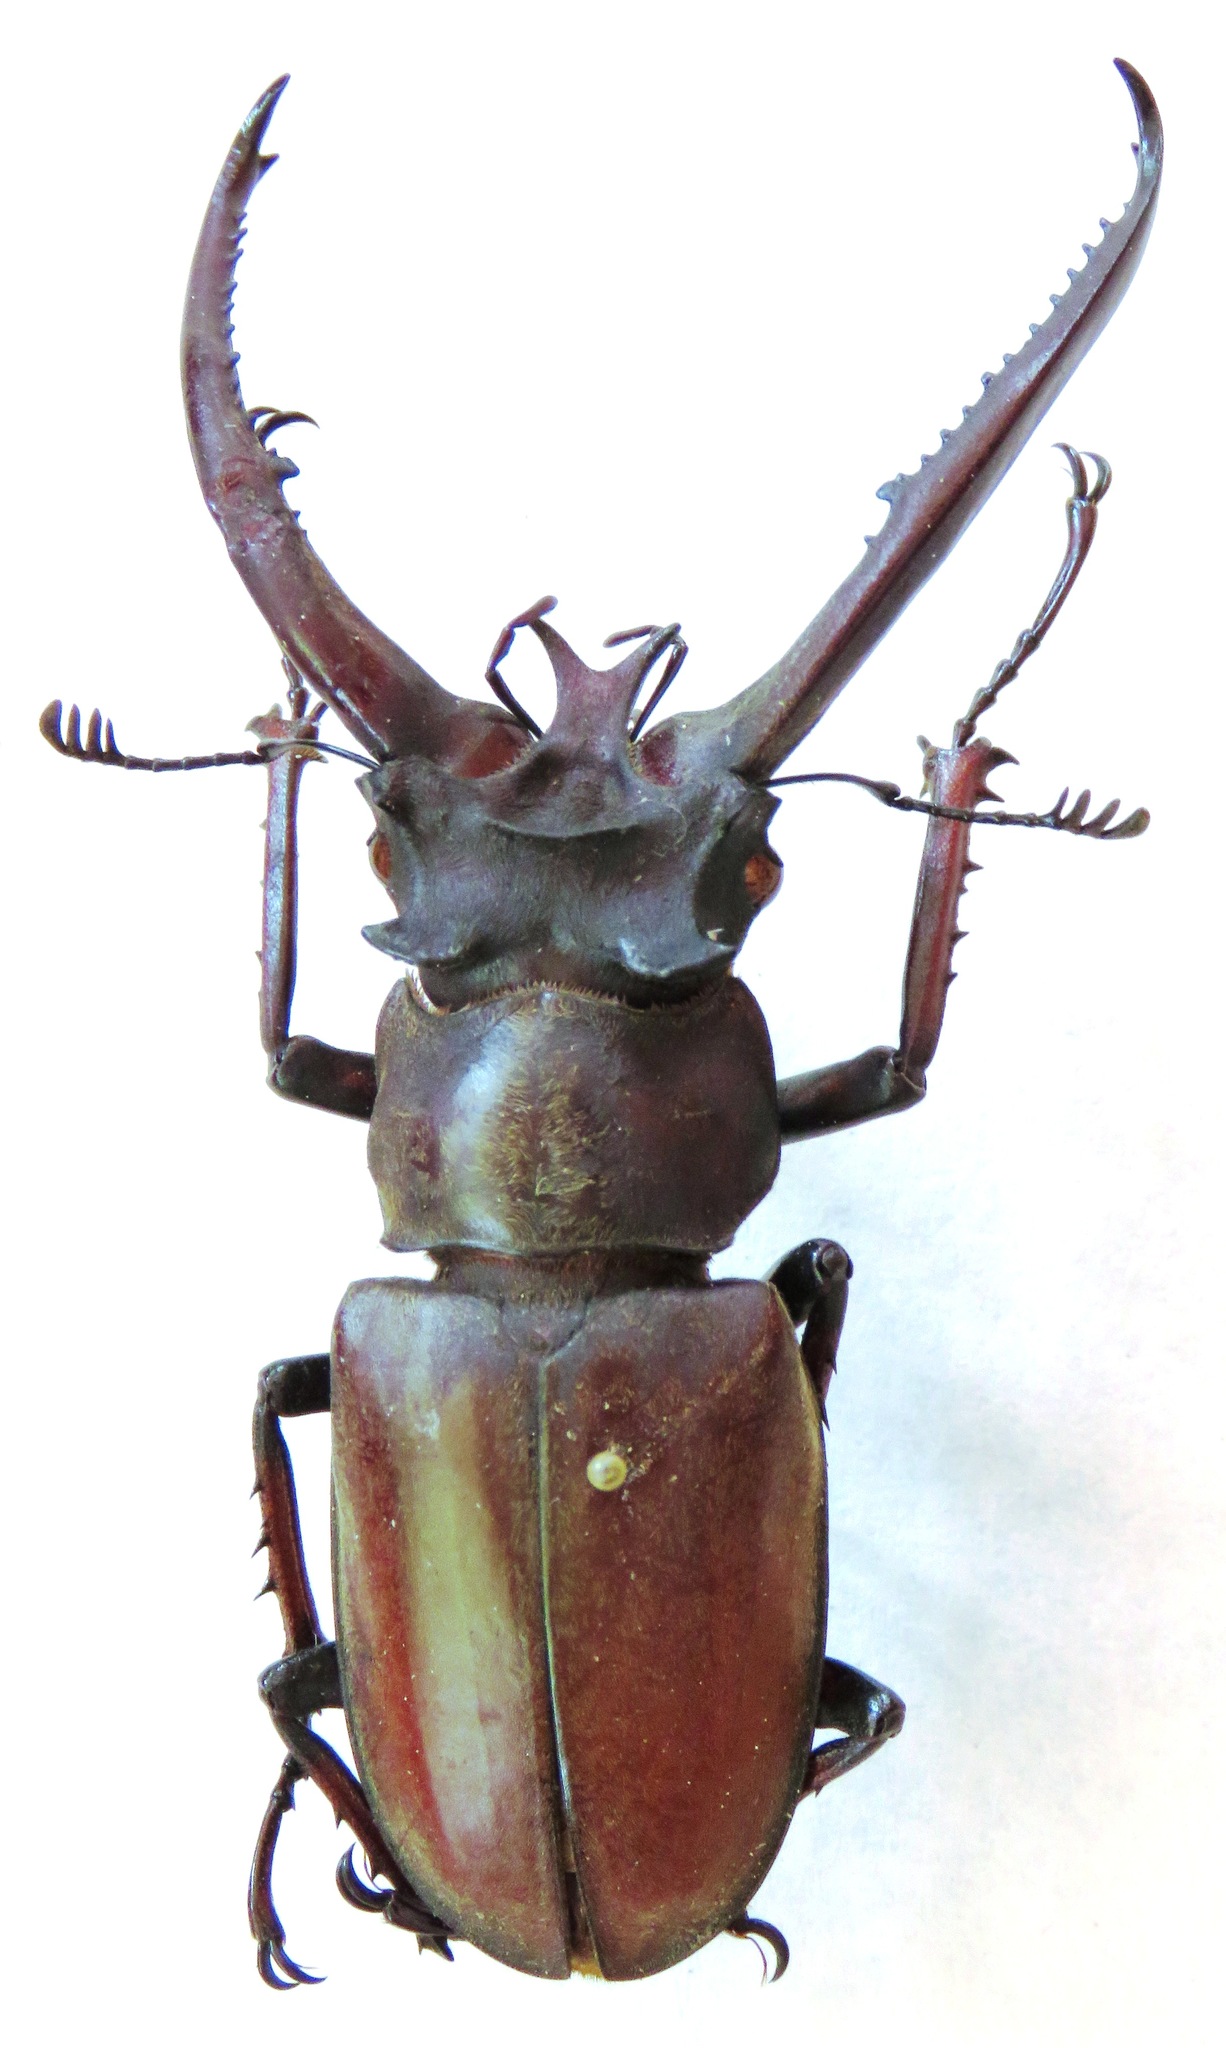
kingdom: Animalia
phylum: Arthropoda
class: Insecta
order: Coleoptera
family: Lucanidae
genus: Lucanus
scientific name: Lucanus planeti
